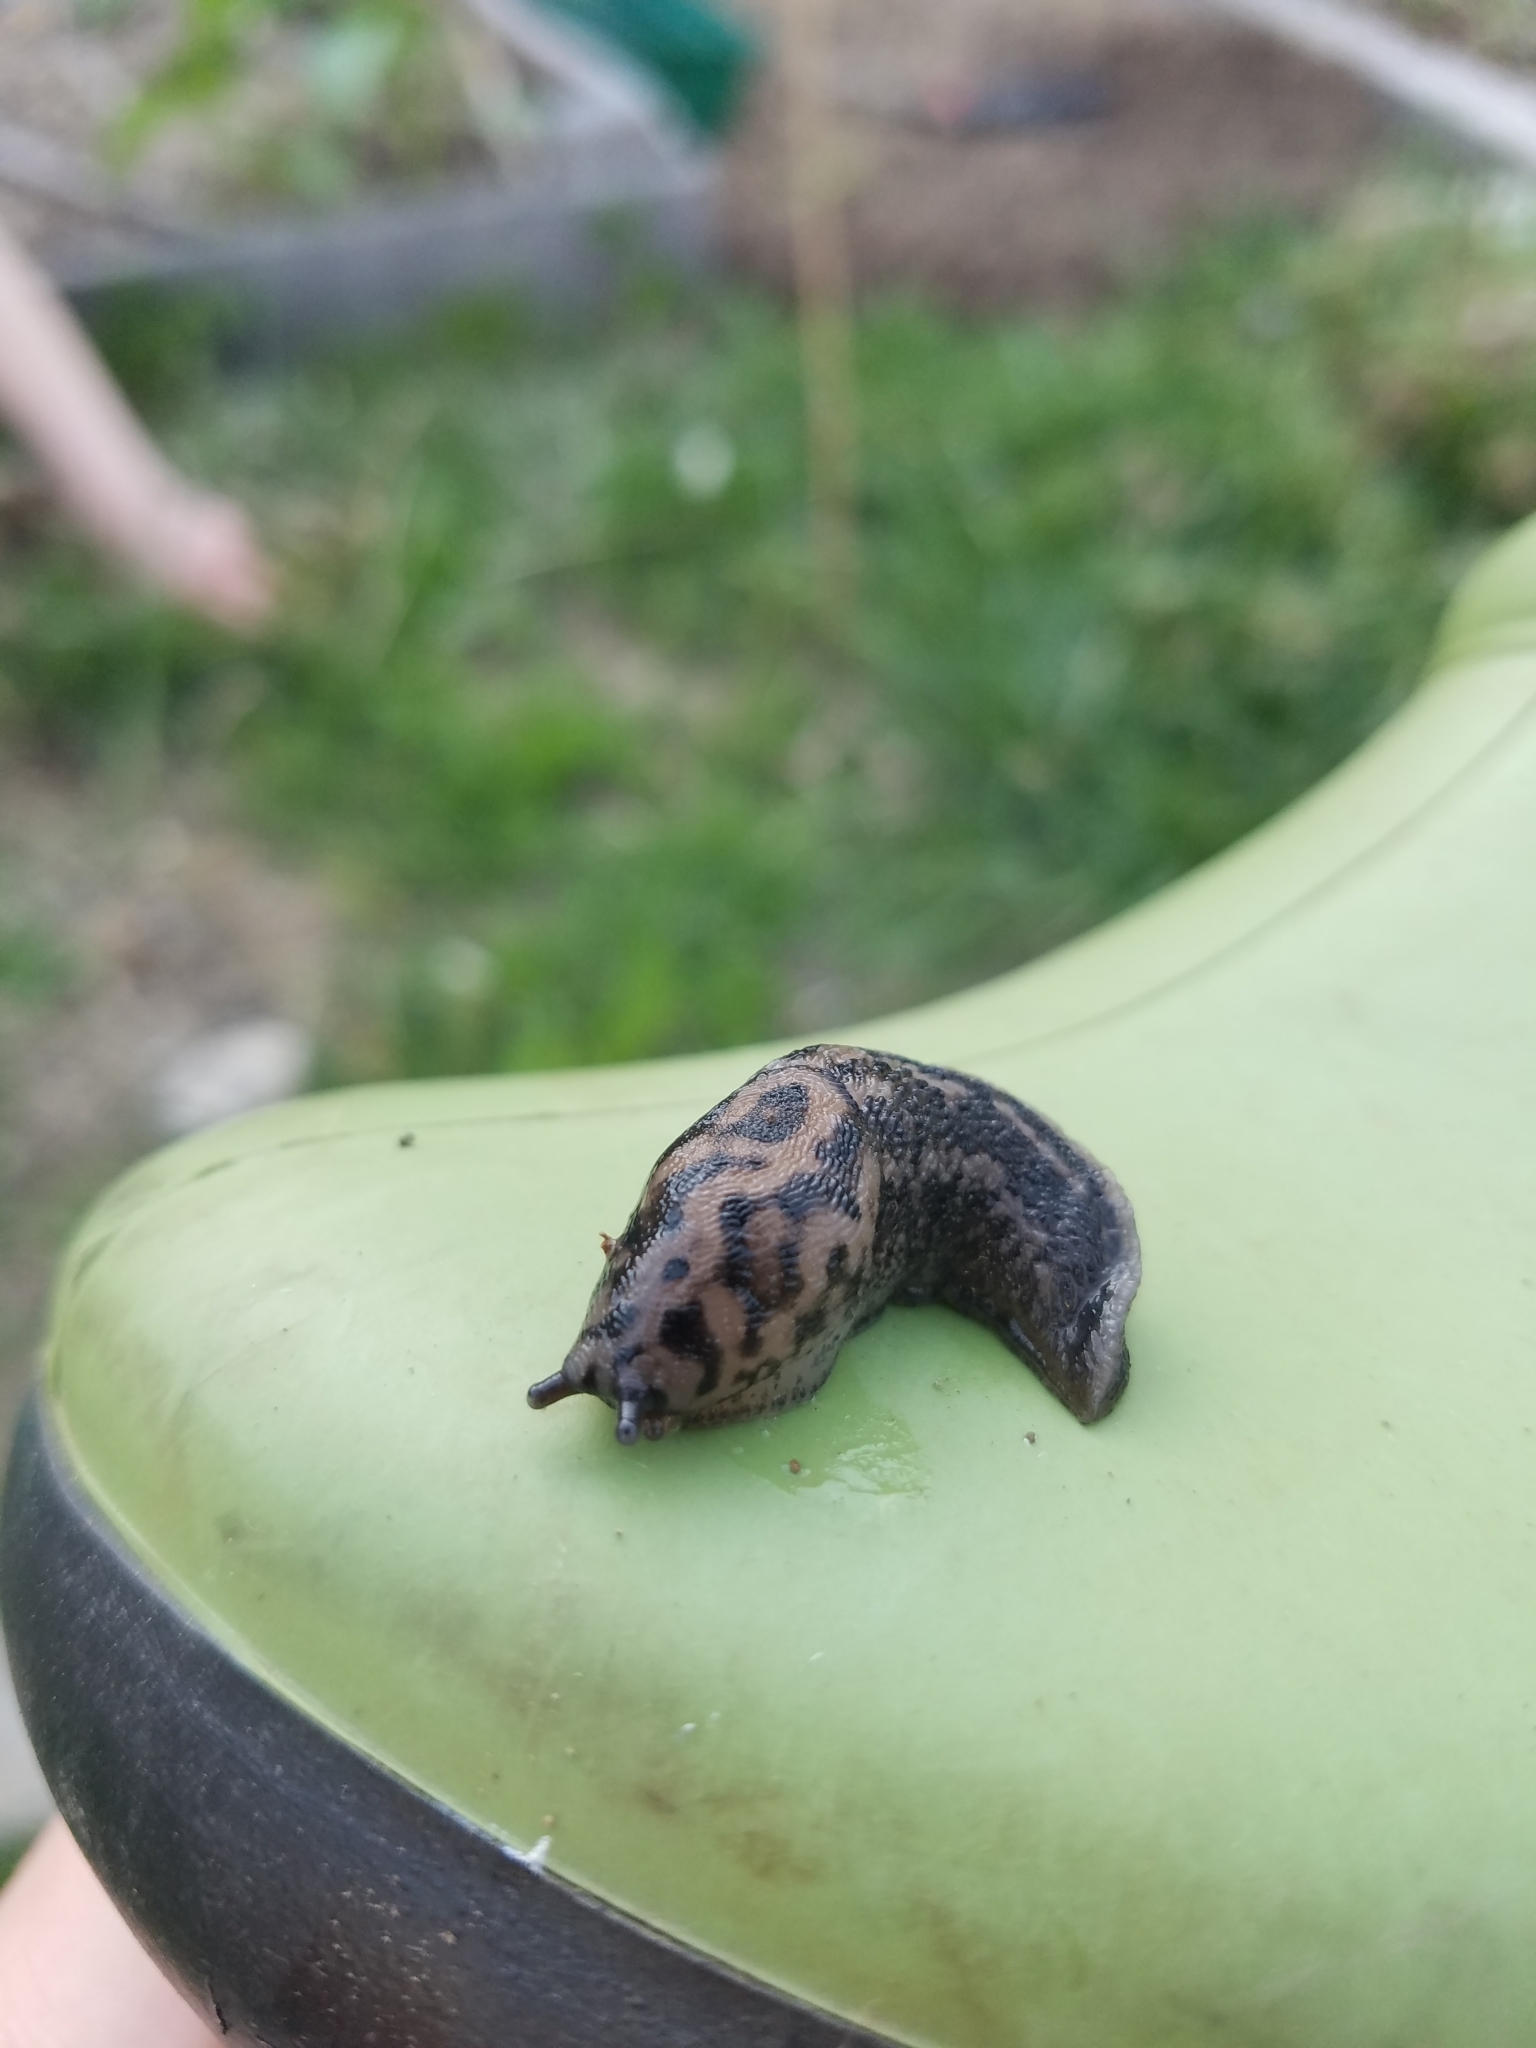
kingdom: Animalia
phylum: Mollusca
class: Gastropoda
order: Stylommatophora
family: Limacidae
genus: Limax
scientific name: Limax maximus
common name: Great grey slug
